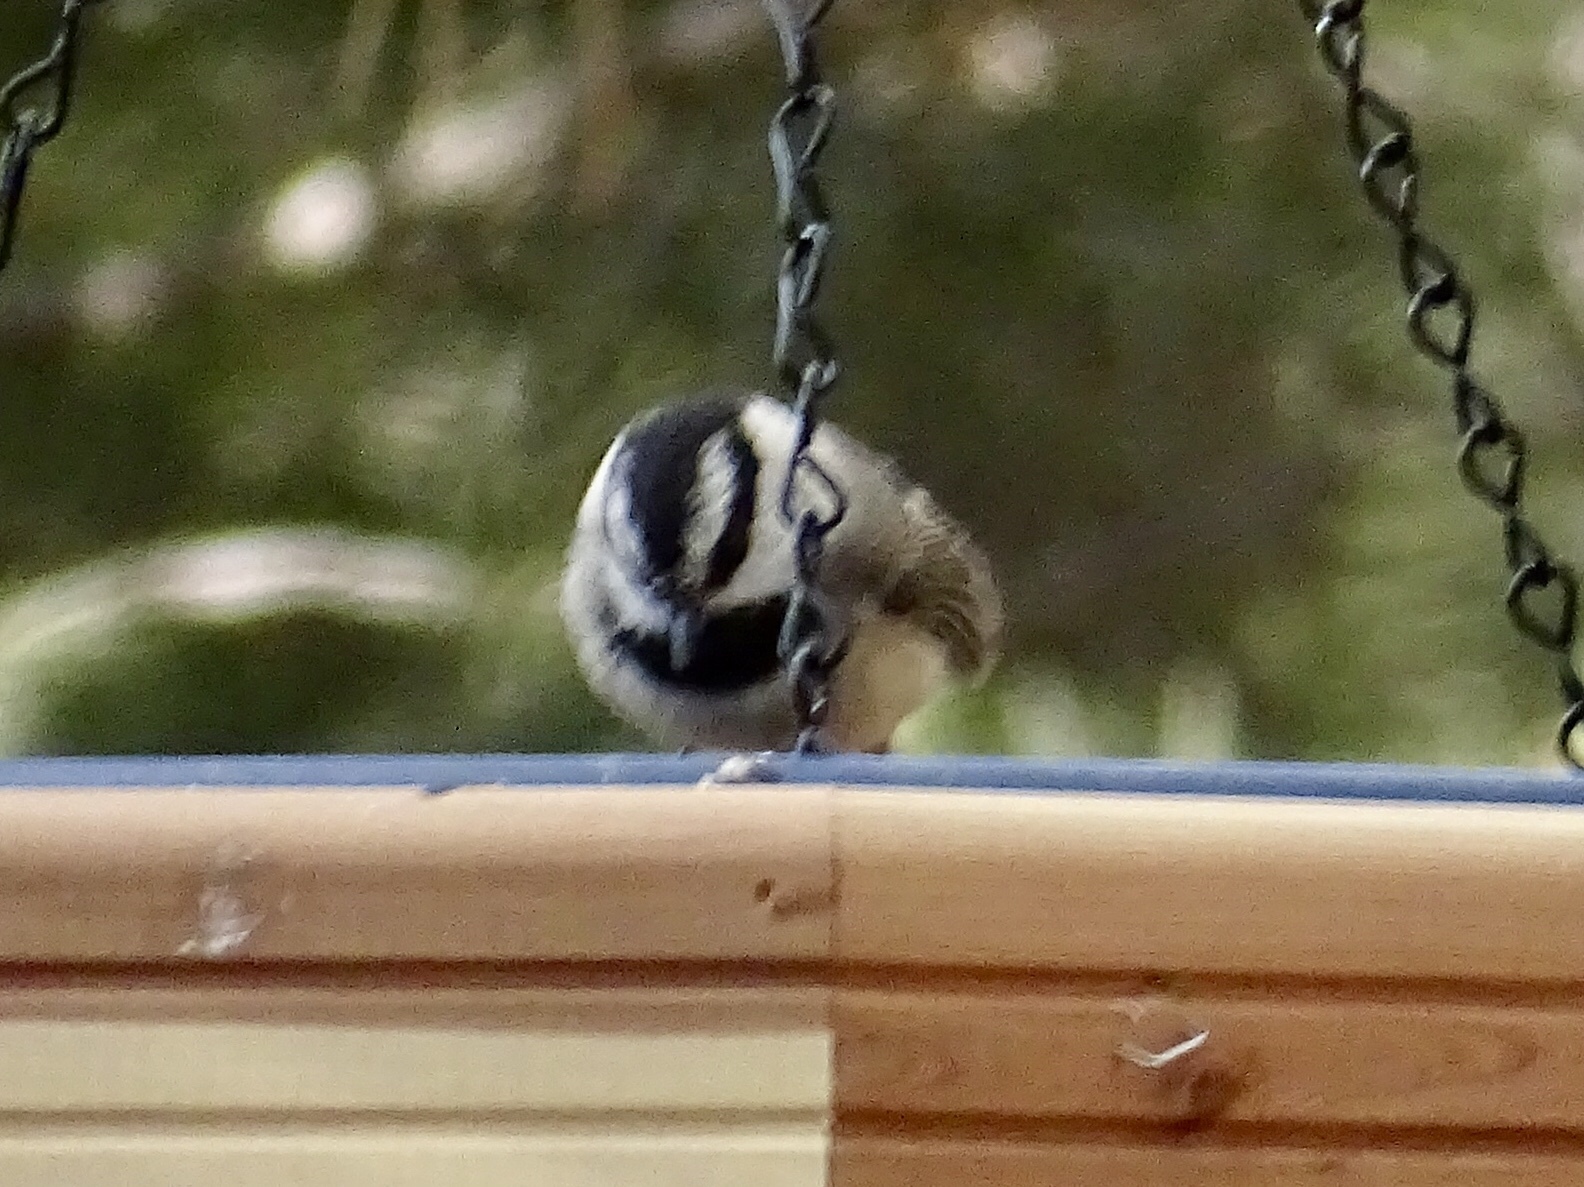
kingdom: Animalia
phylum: Chordata
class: Aves
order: Passeriformes
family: Paridae
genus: Poecile
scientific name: Poecile gambeli
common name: Mountain chickadee
